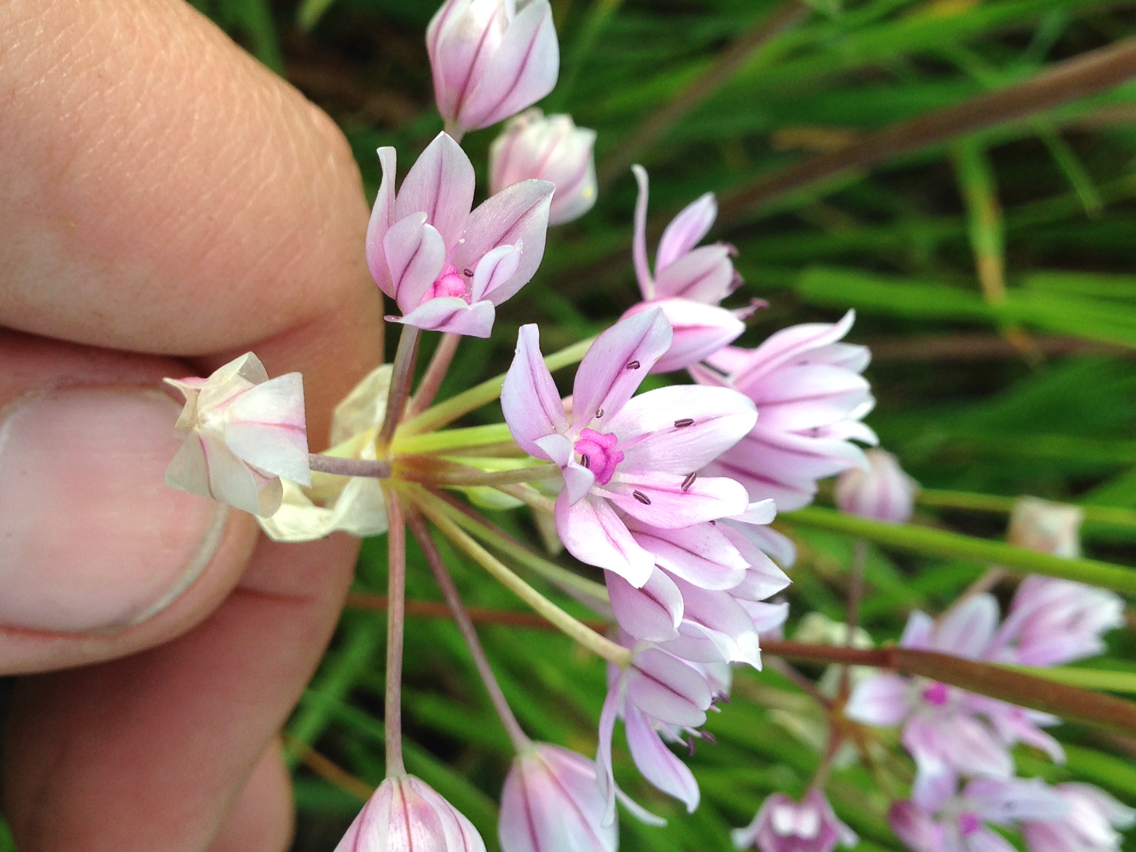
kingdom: Plantae
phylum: Tracheophyta
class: Liliopsida
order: Asparagales
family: Amaryllidaceae
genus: Allium
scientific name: Allium hyalinum
